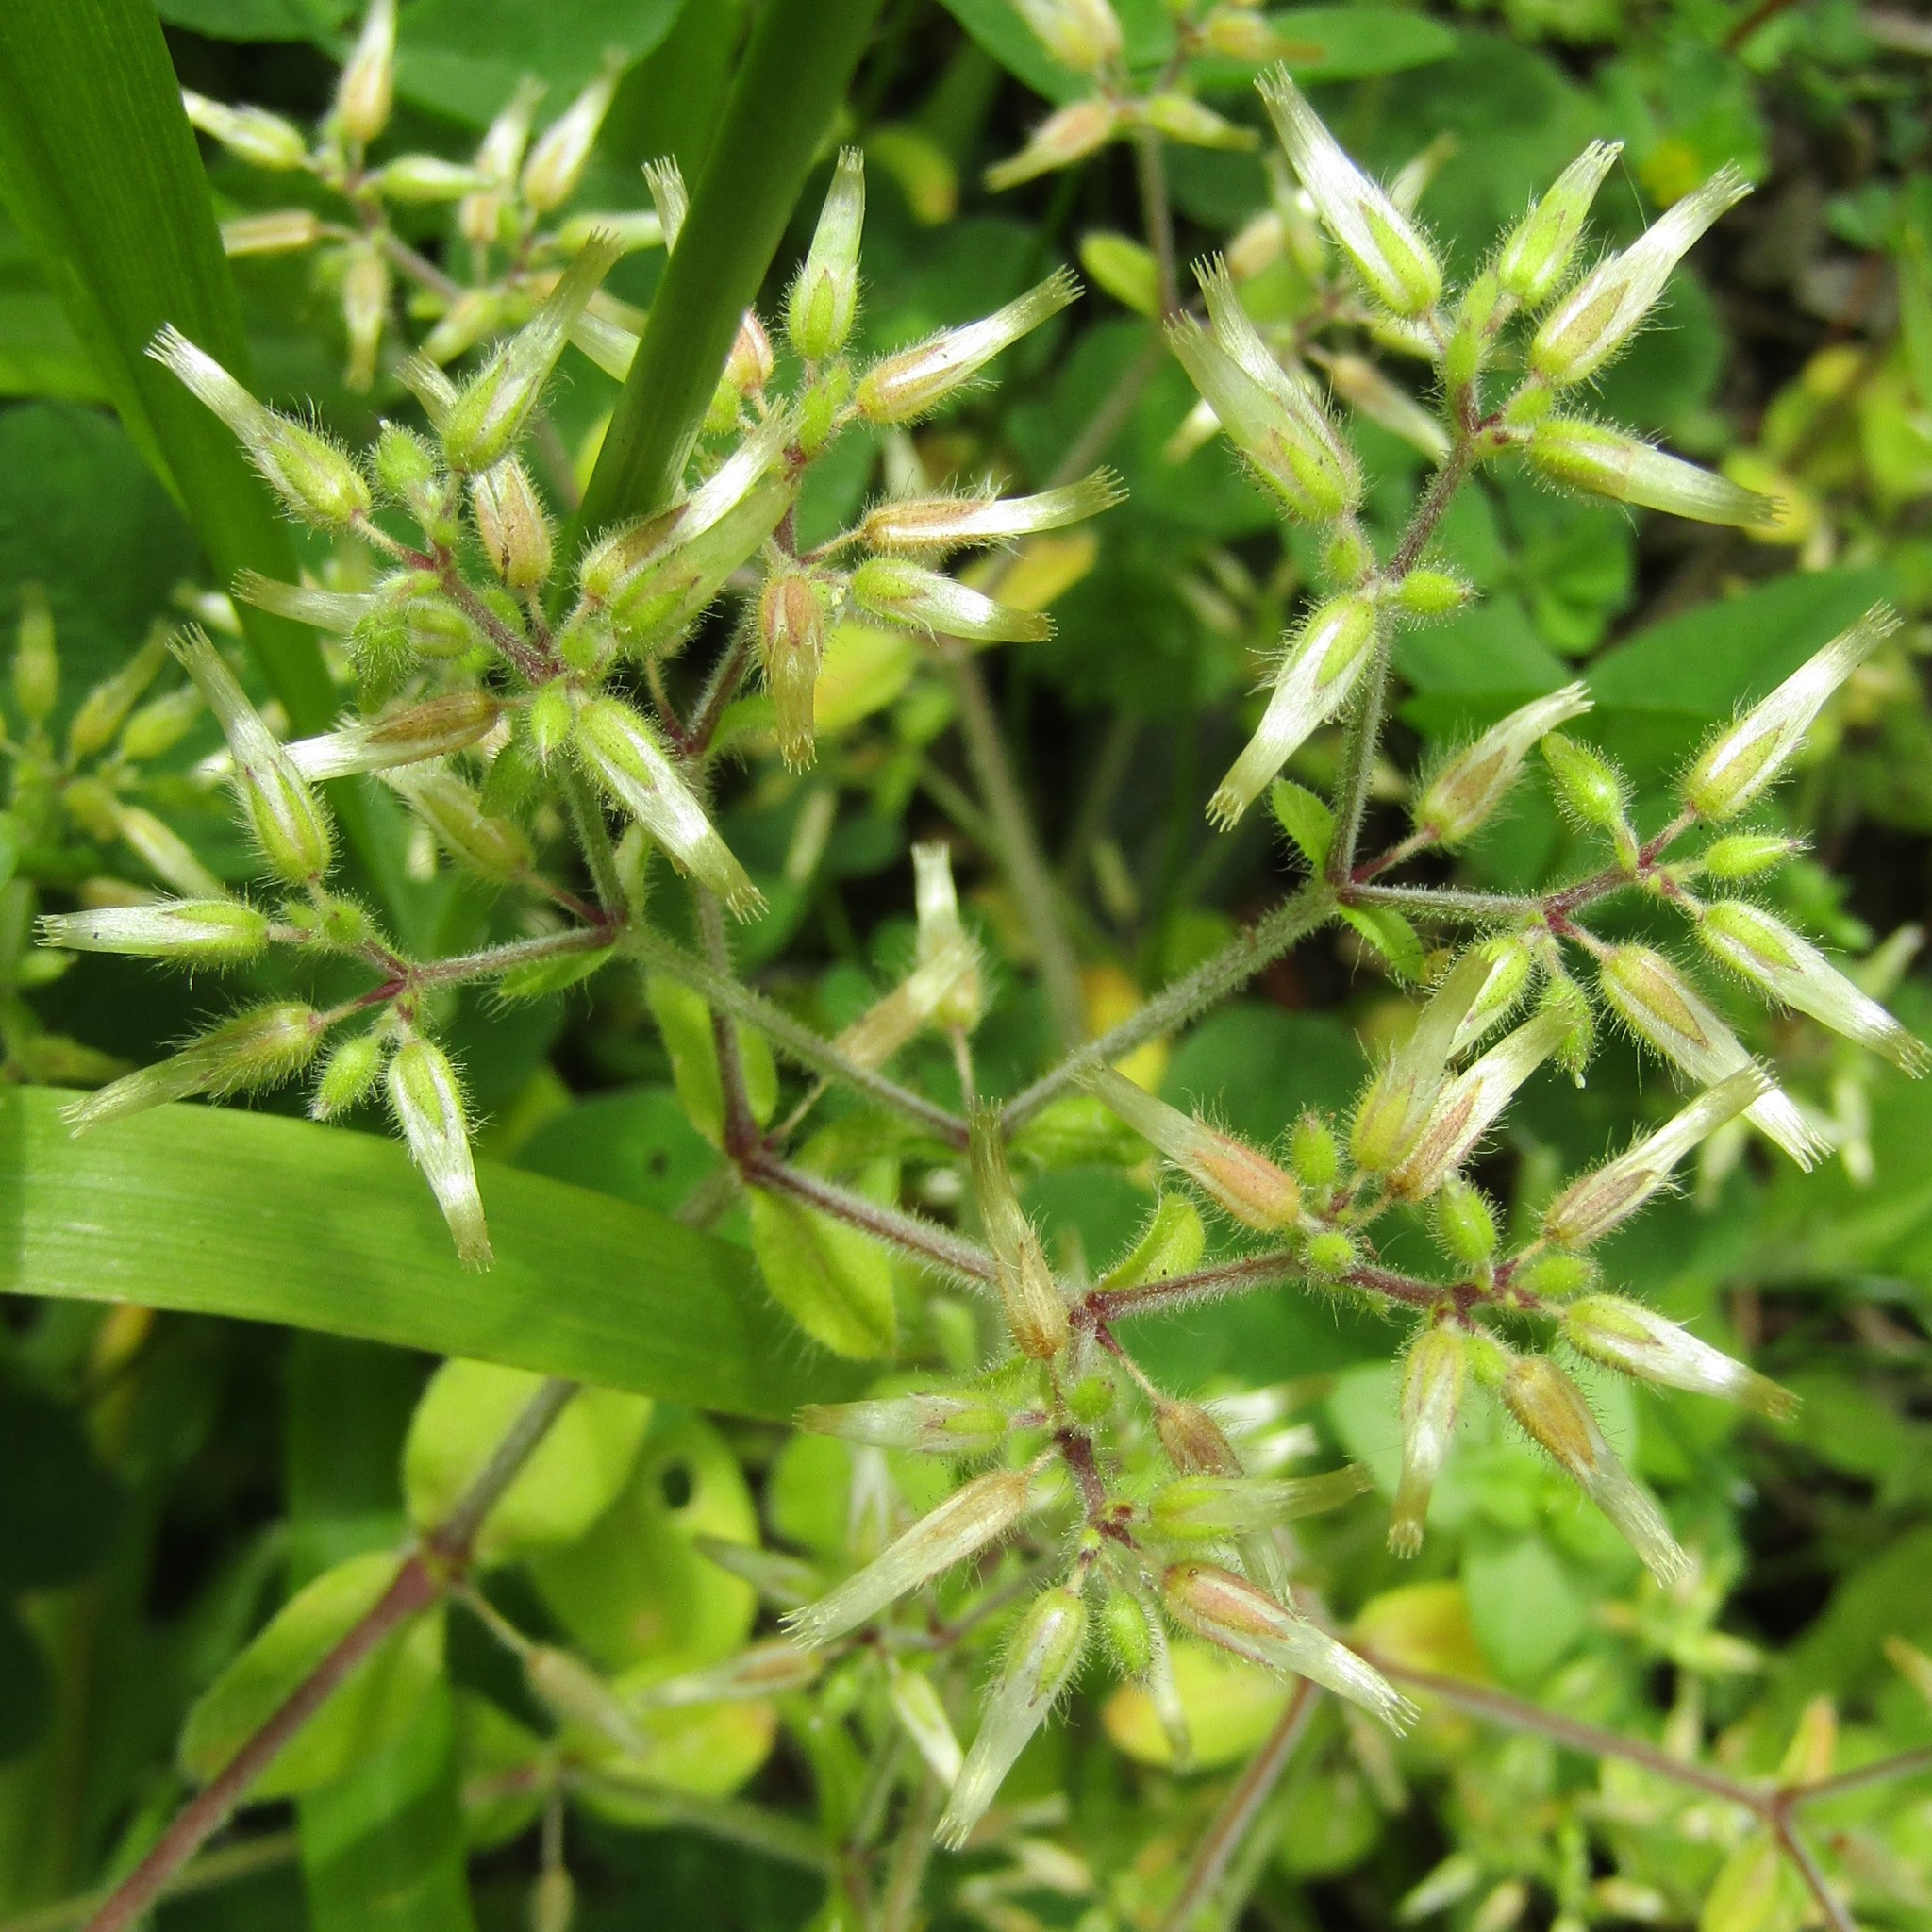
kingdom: Plantae
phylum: Tracheophyta
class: Magnoliopsida
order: Caryophyllales
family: Caryophyllaceae
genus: Cerastium
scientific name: Cerastium glomeratum
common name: Sticky chickweed
